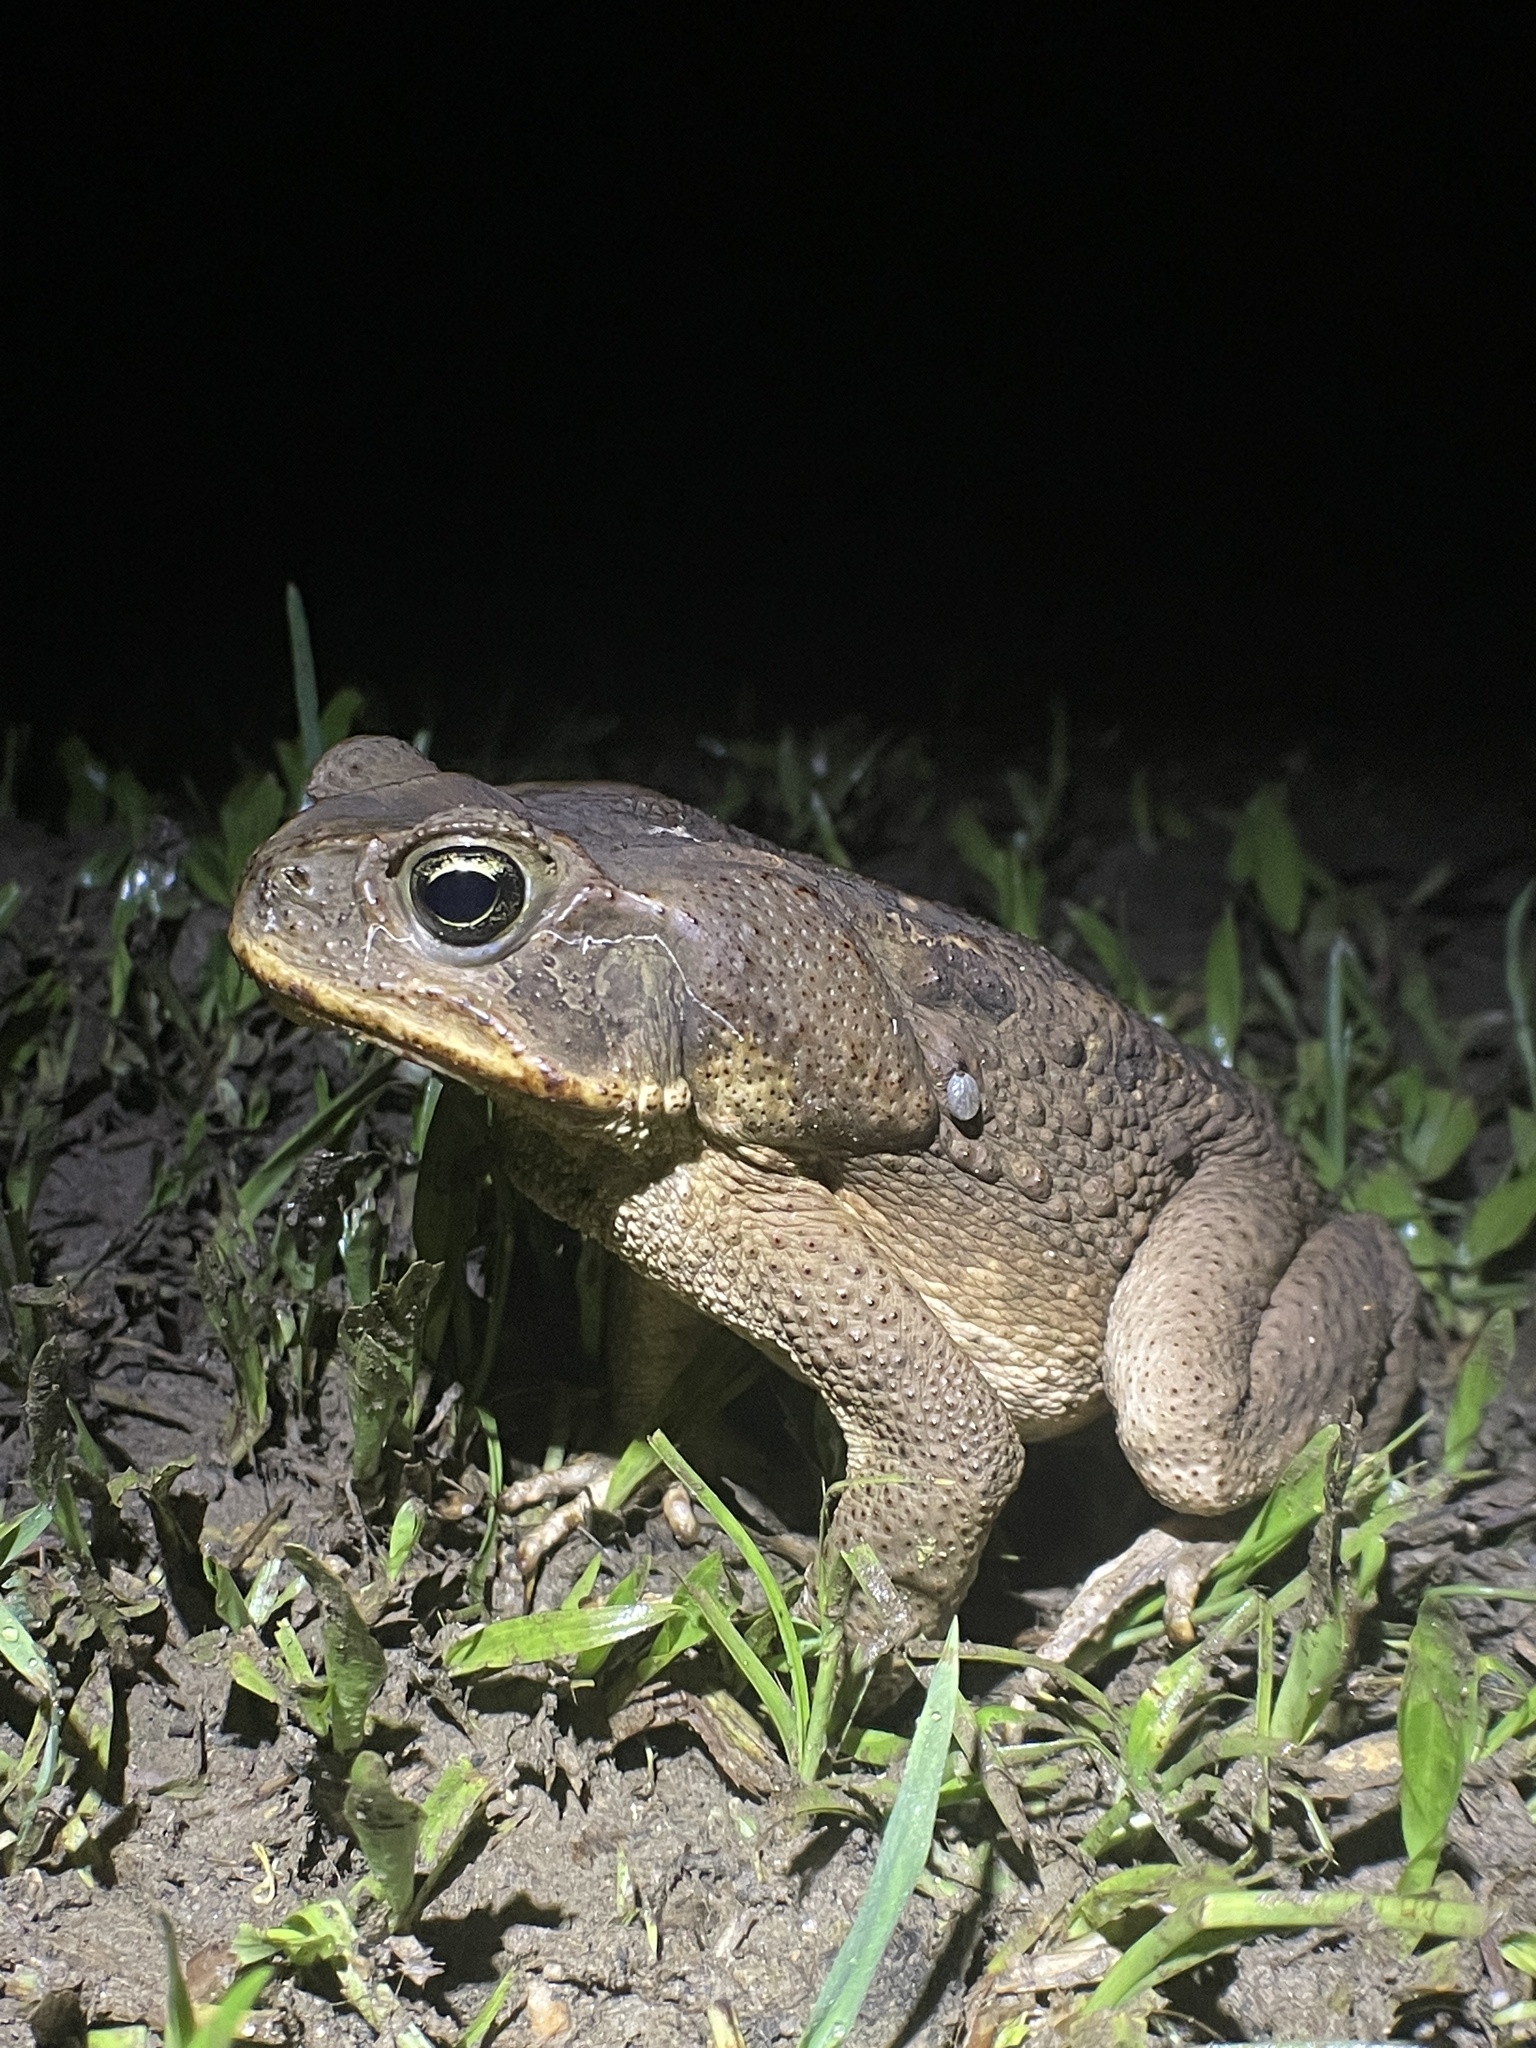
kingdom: Animalia
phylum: Chordata
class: Amphibia
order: Anura
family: Bufonidae
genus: Rhinella
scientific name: Rhinella marina
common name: Cane toad
